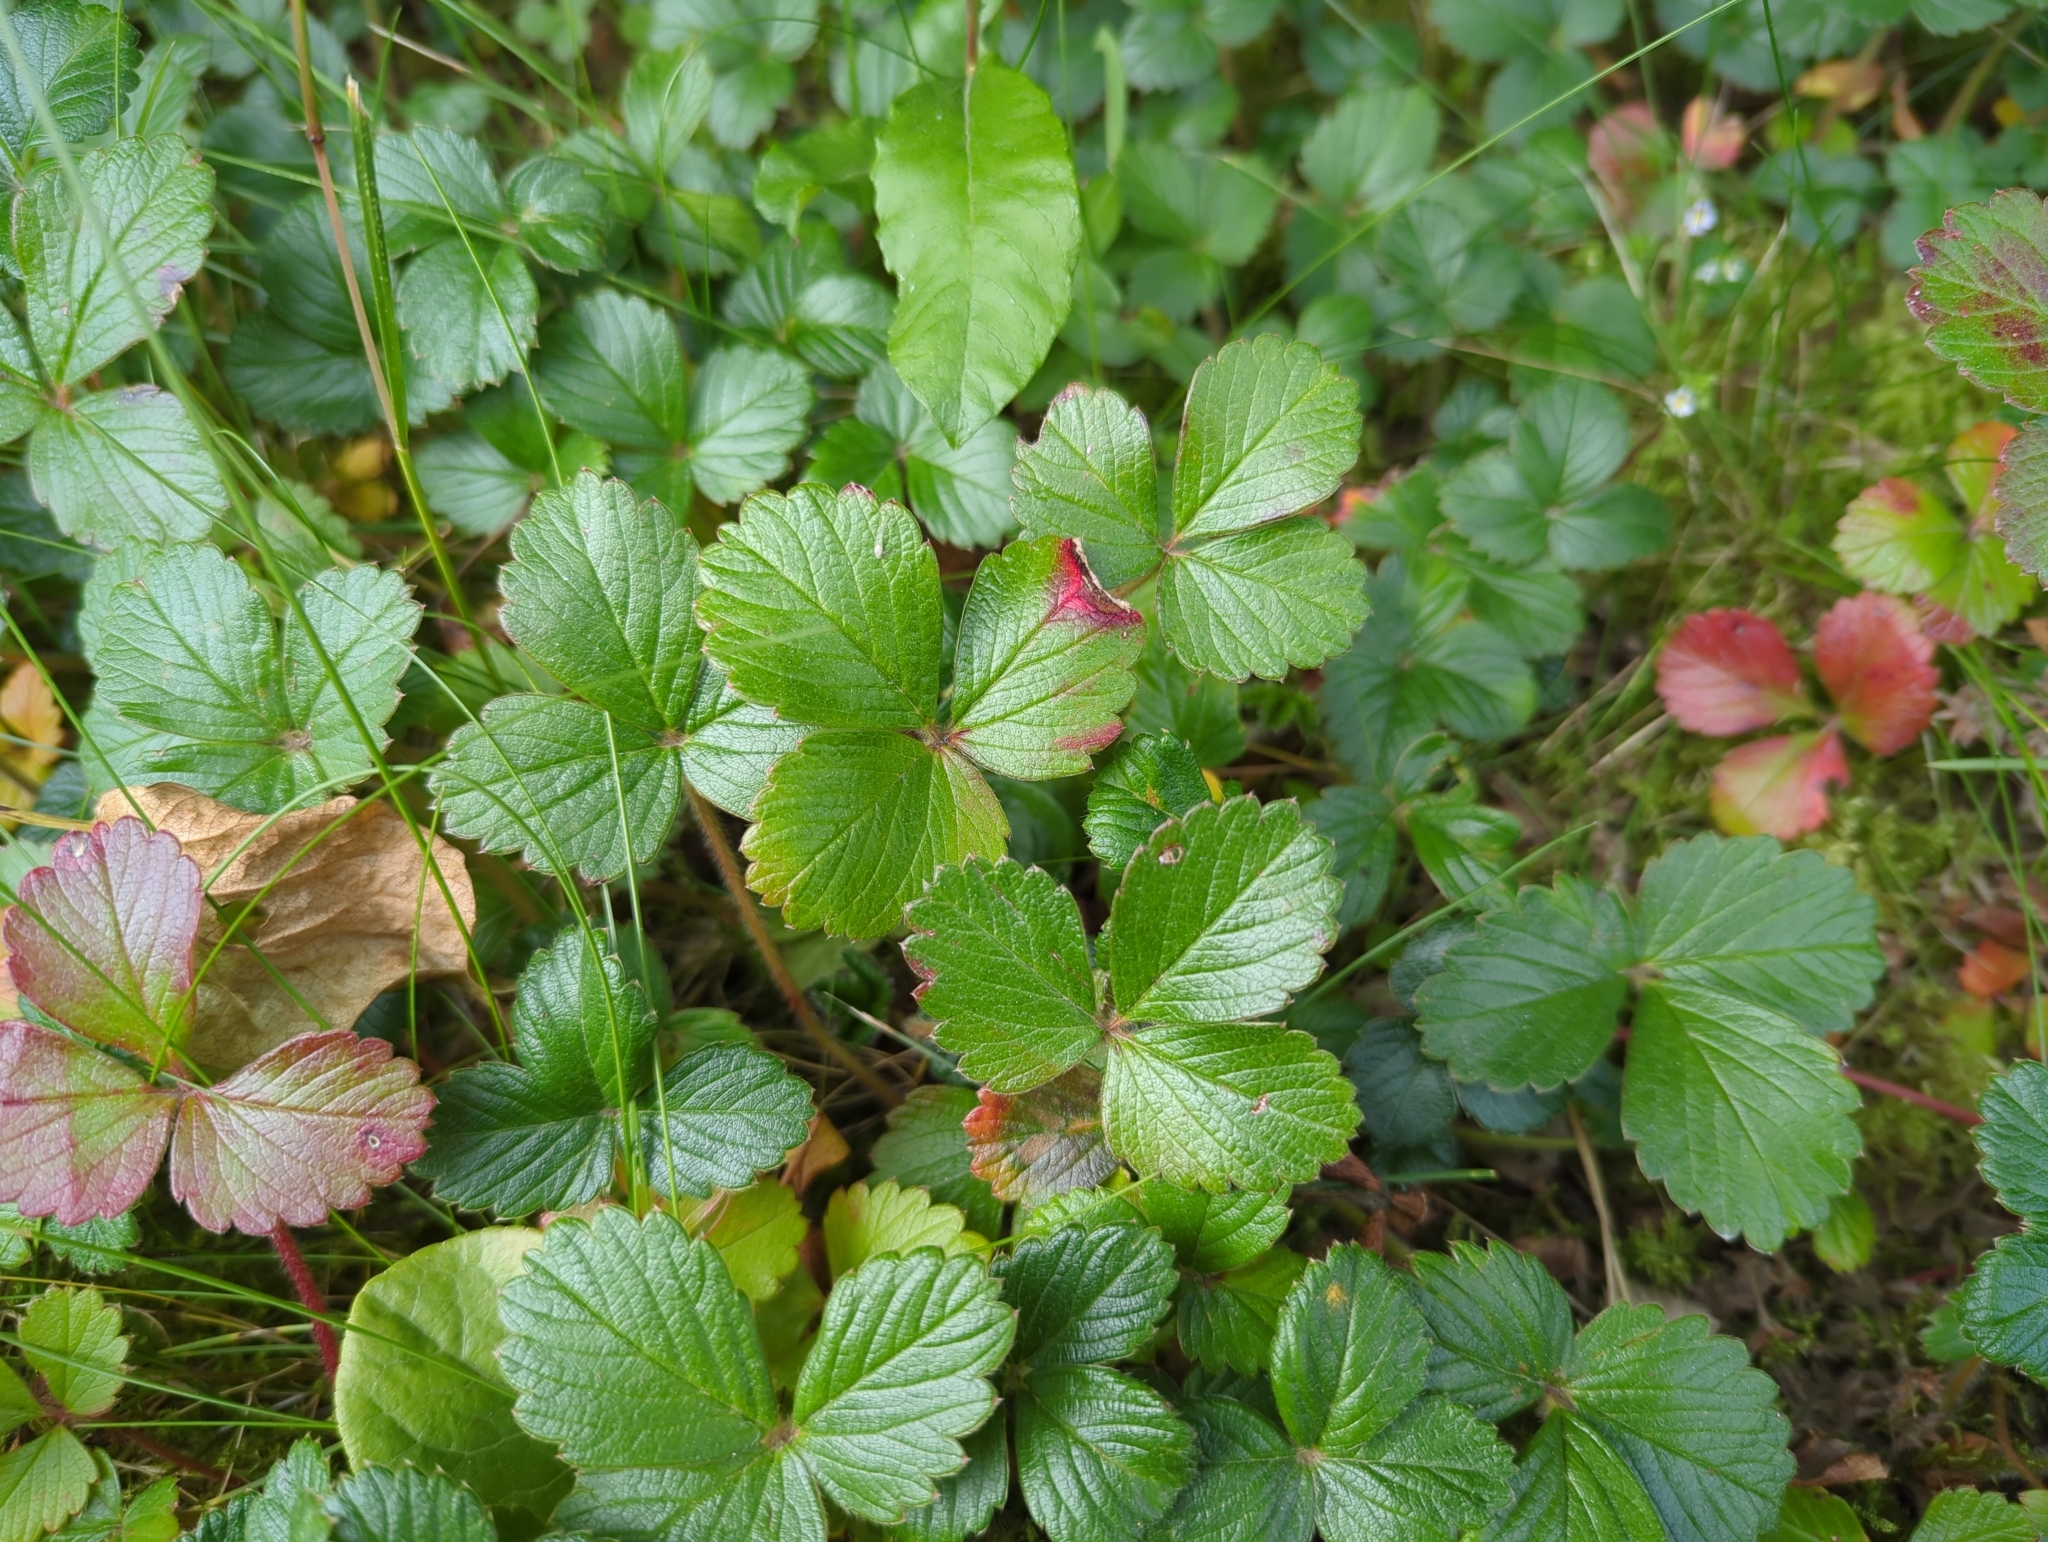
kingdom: Plantae
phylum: Tracheophyta
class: Magnoliopsida
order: Rosales
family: Rosaceae
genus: Fragaria
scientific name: Fragaria chiloensis
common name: Beach strawberry
